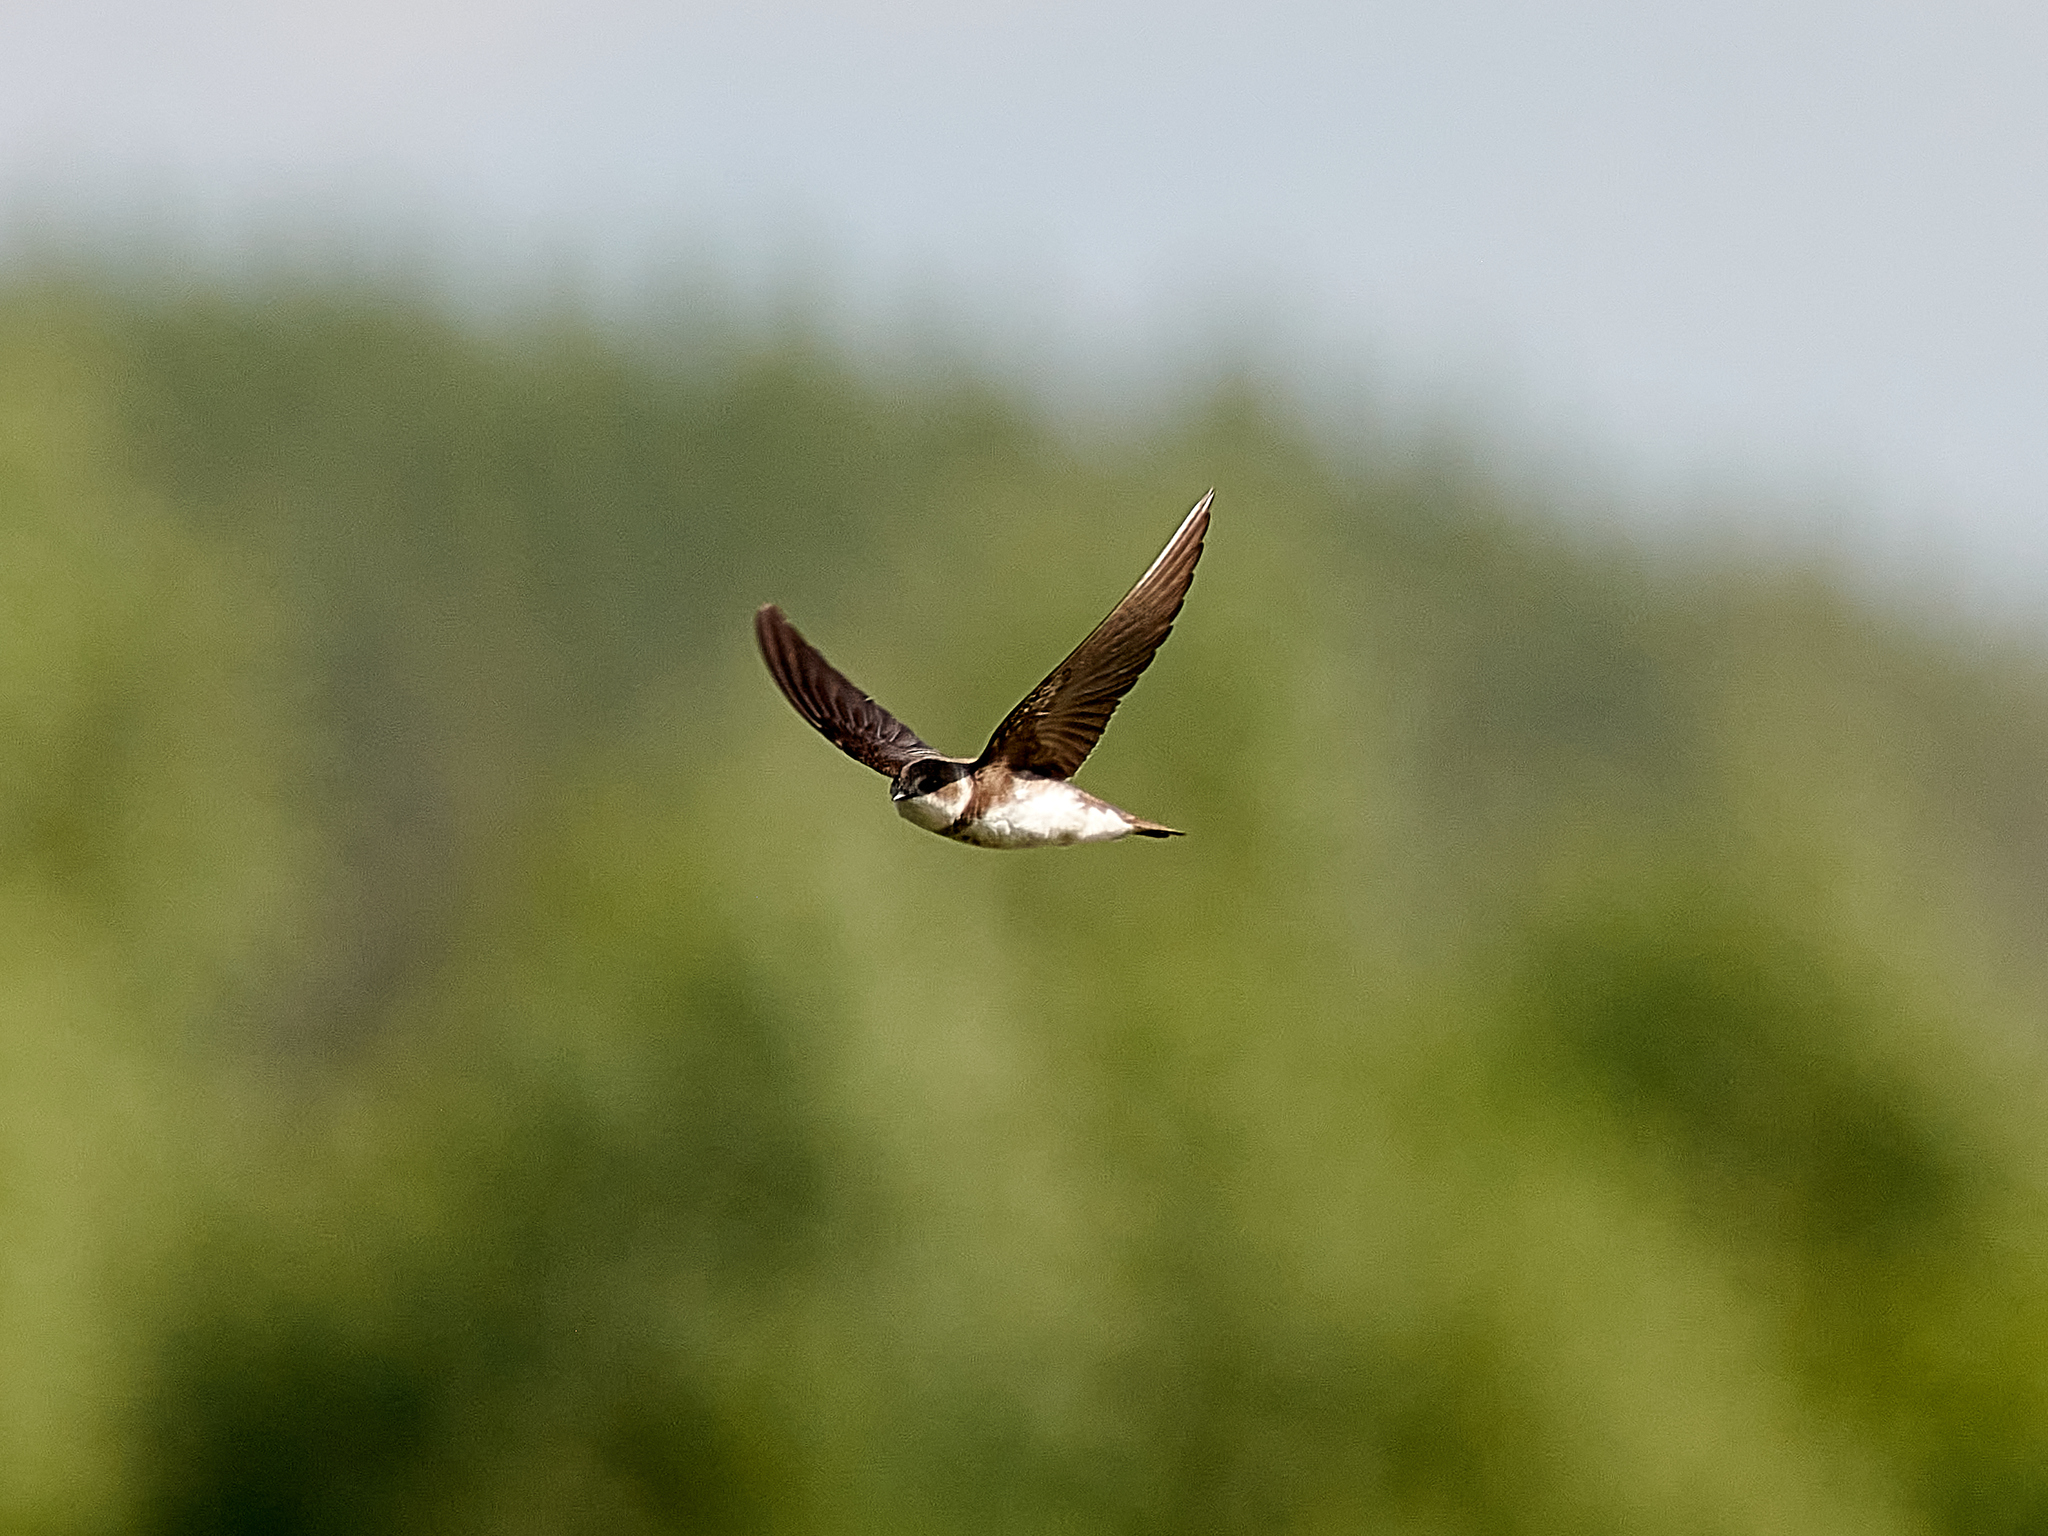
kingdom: Animalia
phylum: Chordata
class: Aves
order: Passeriformes
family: Hirundinidae
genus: Riparia
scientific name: Riparia riparia
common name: Sand martin
